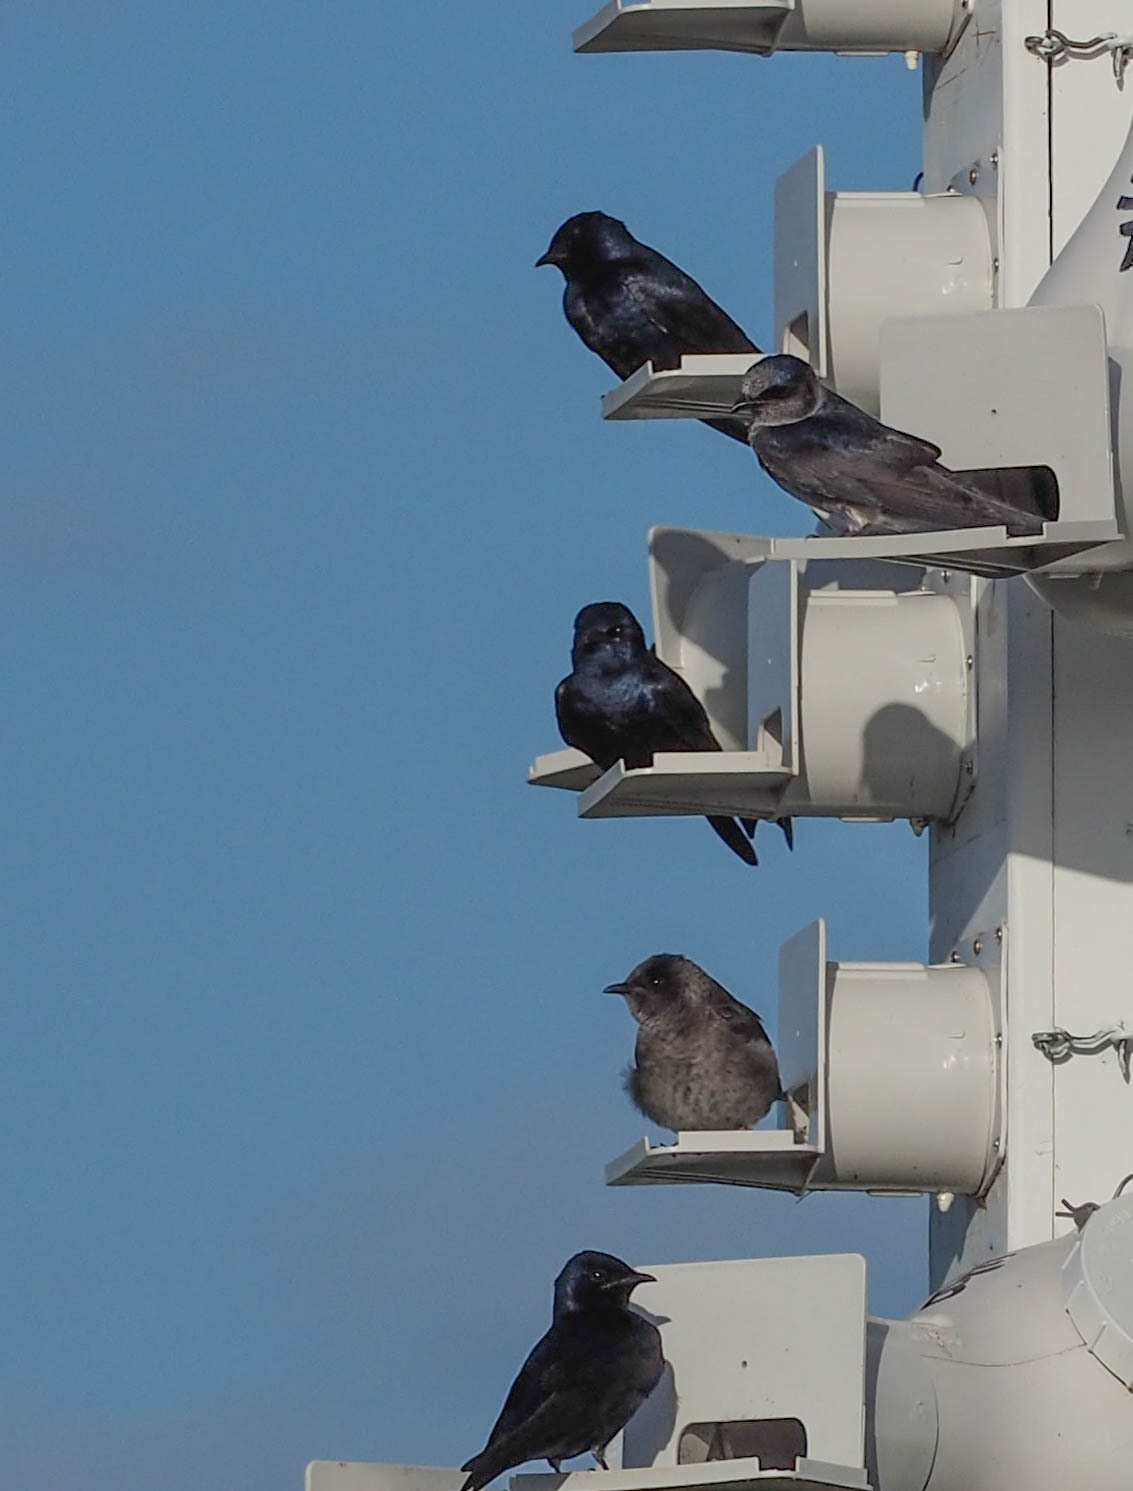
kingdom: Animalia
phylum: Chordata
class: Aves
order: Passeriformes
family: Hirundinidae
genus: Progne
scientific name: Progne subis
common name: Purple martin
